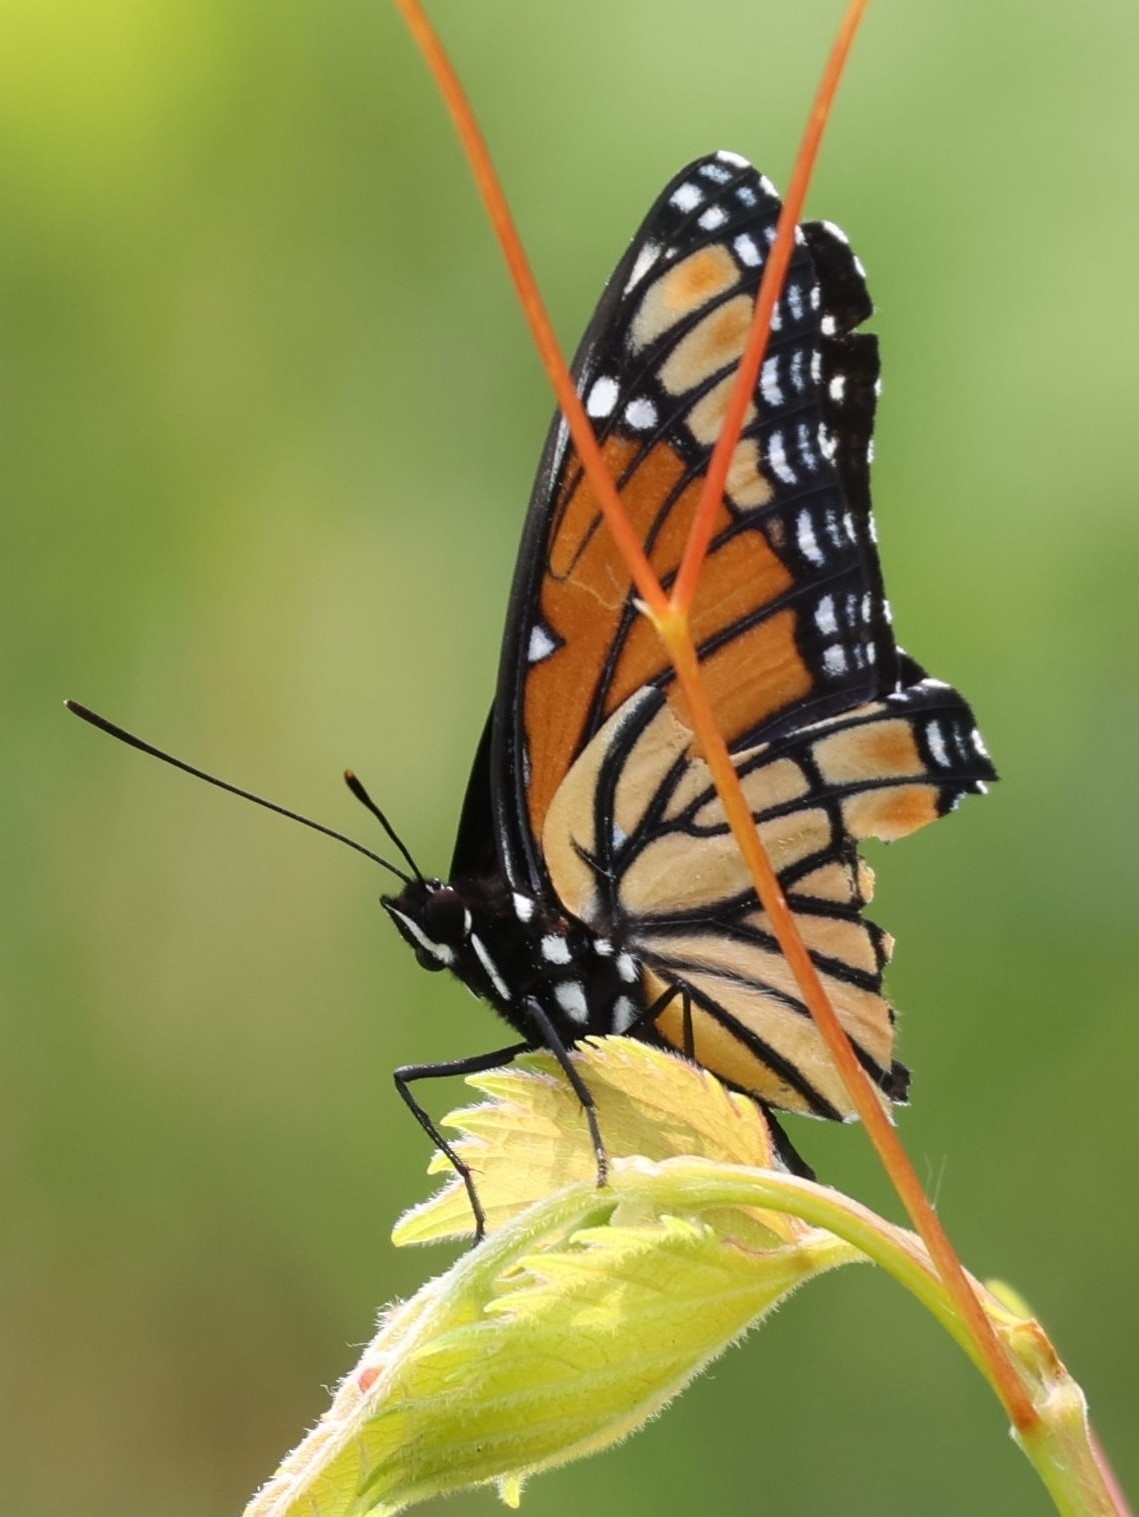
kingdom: Animalia
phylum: Arthropoda
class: Insecta
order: Lepidoptera
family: Nymphalidae
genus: Limenitis
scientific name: Limenitis archippus
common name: Viceroy
